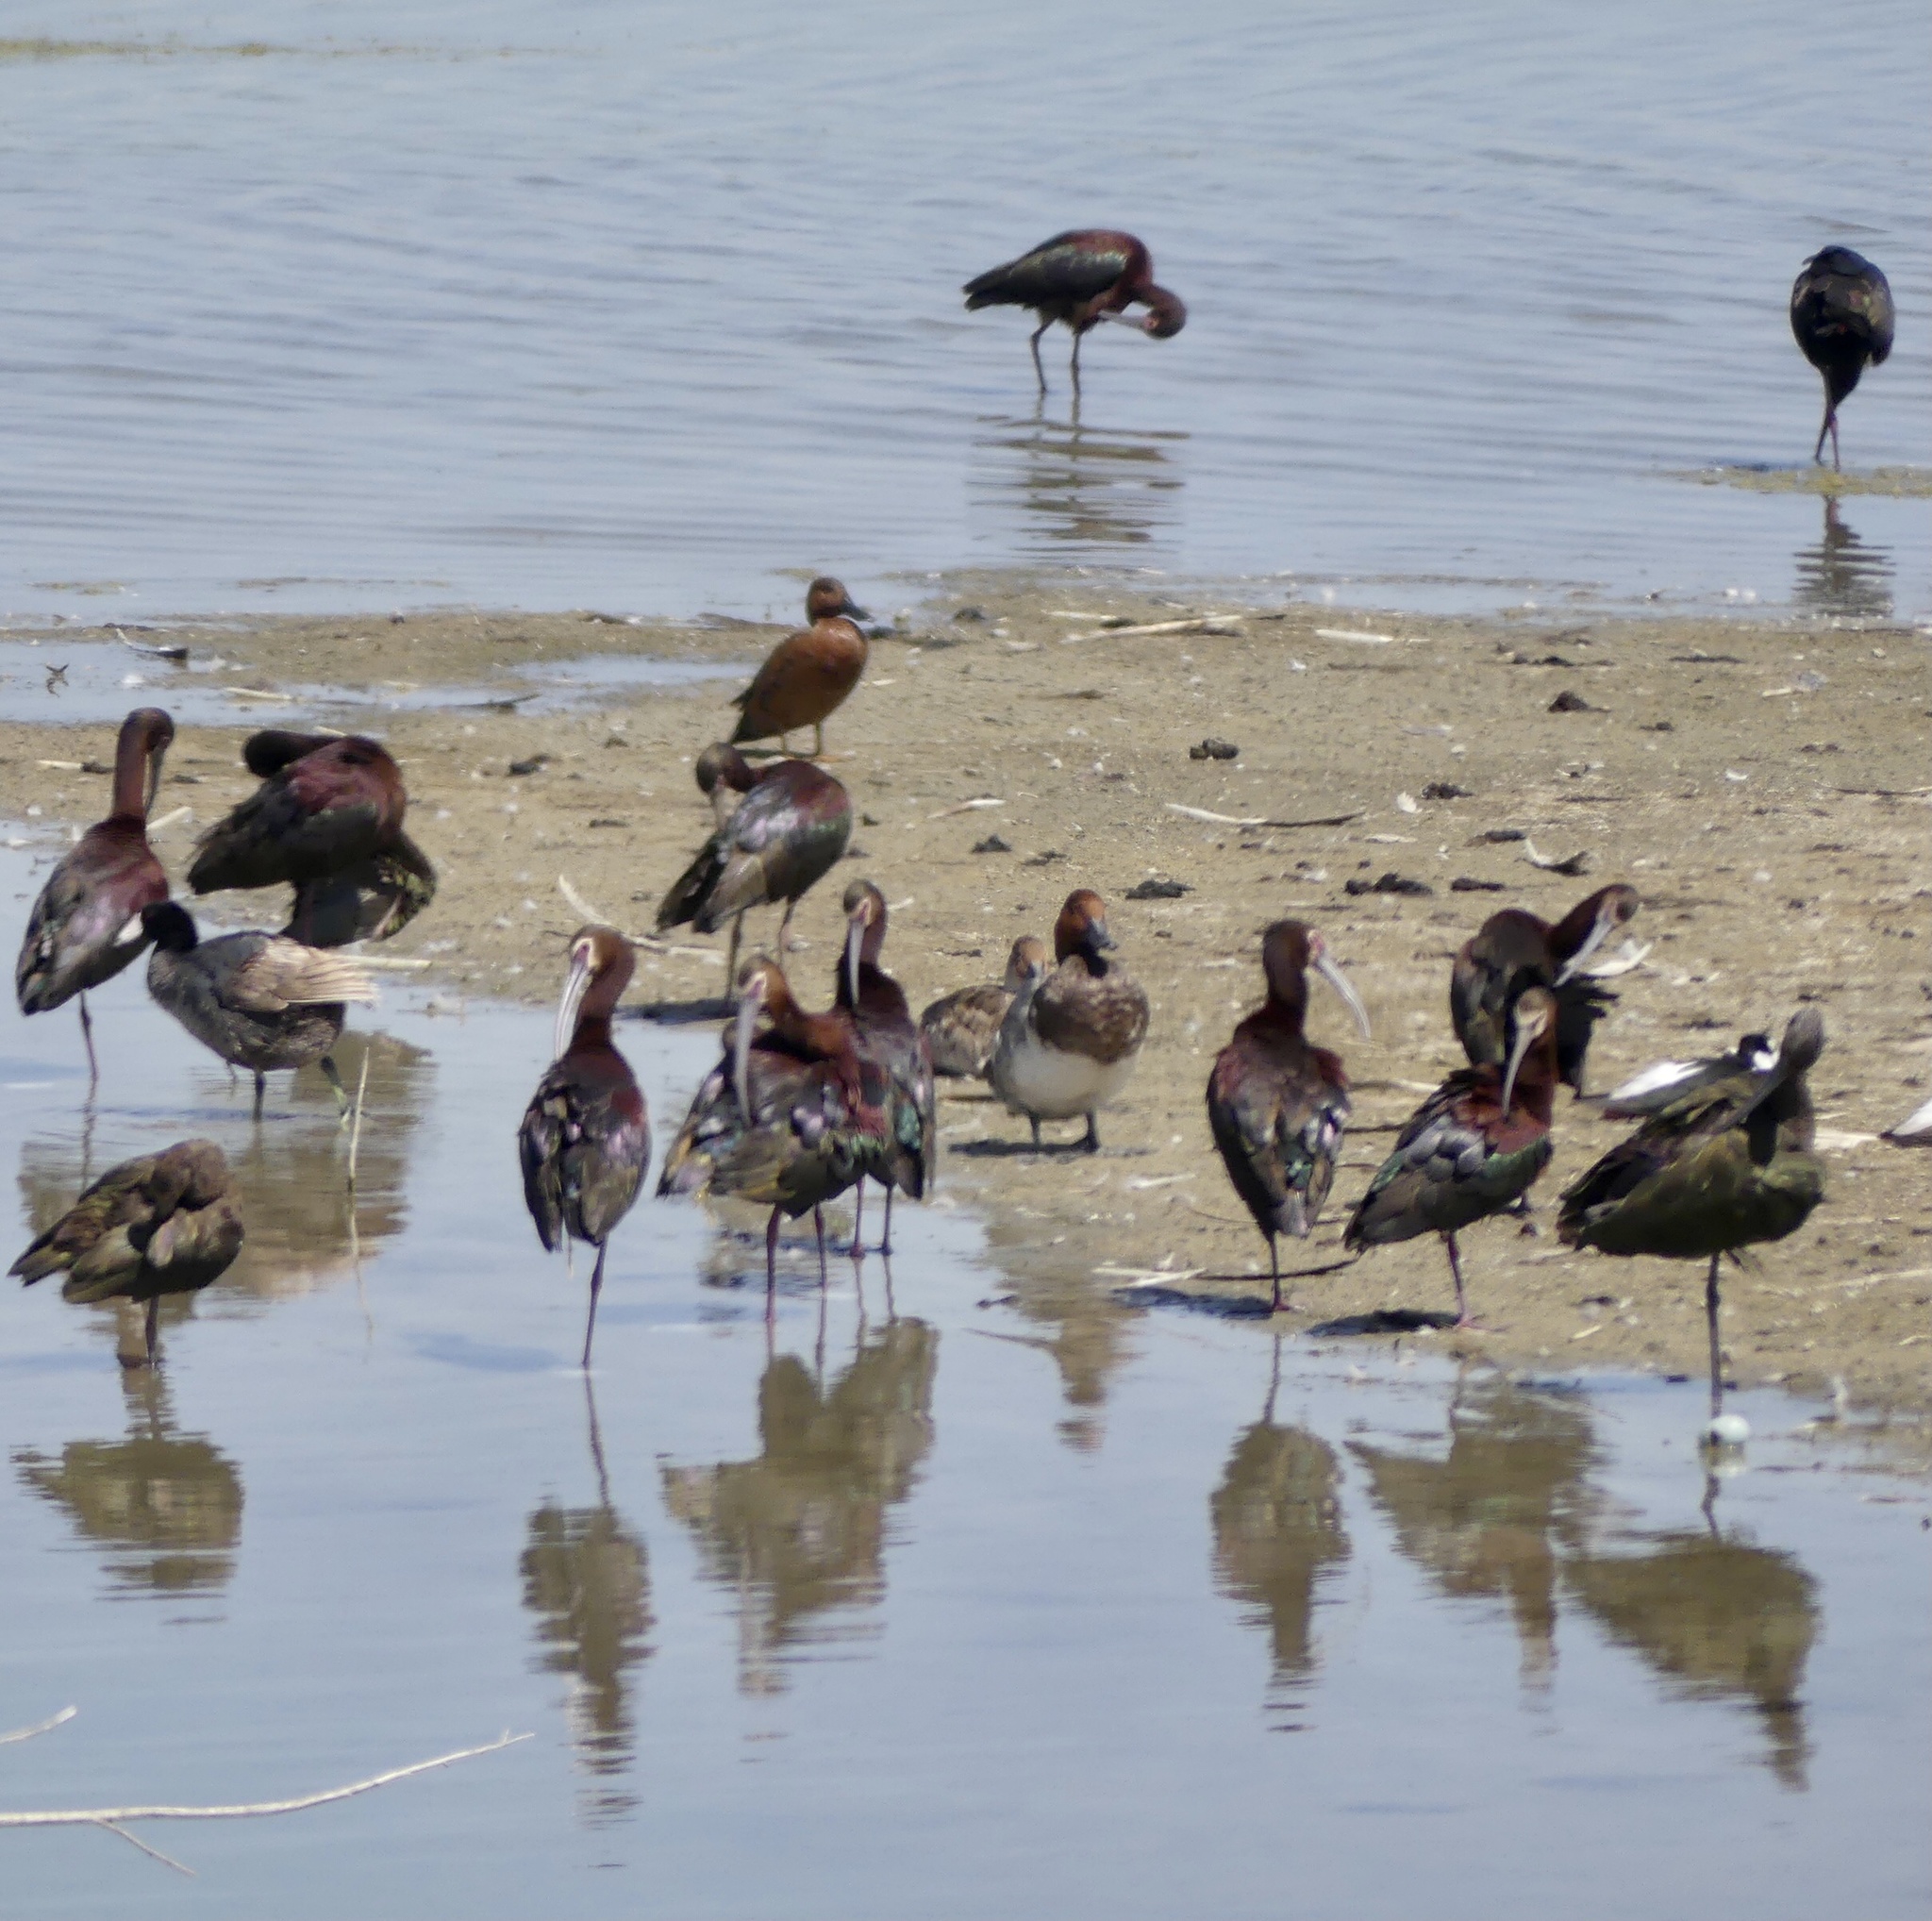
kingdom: Animalia
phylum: Chordata
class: Aves
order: Pelecaniformes
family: Threskiornithidae
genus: Plegadis
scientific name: Plegadis chihi
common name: White-faced ibis
